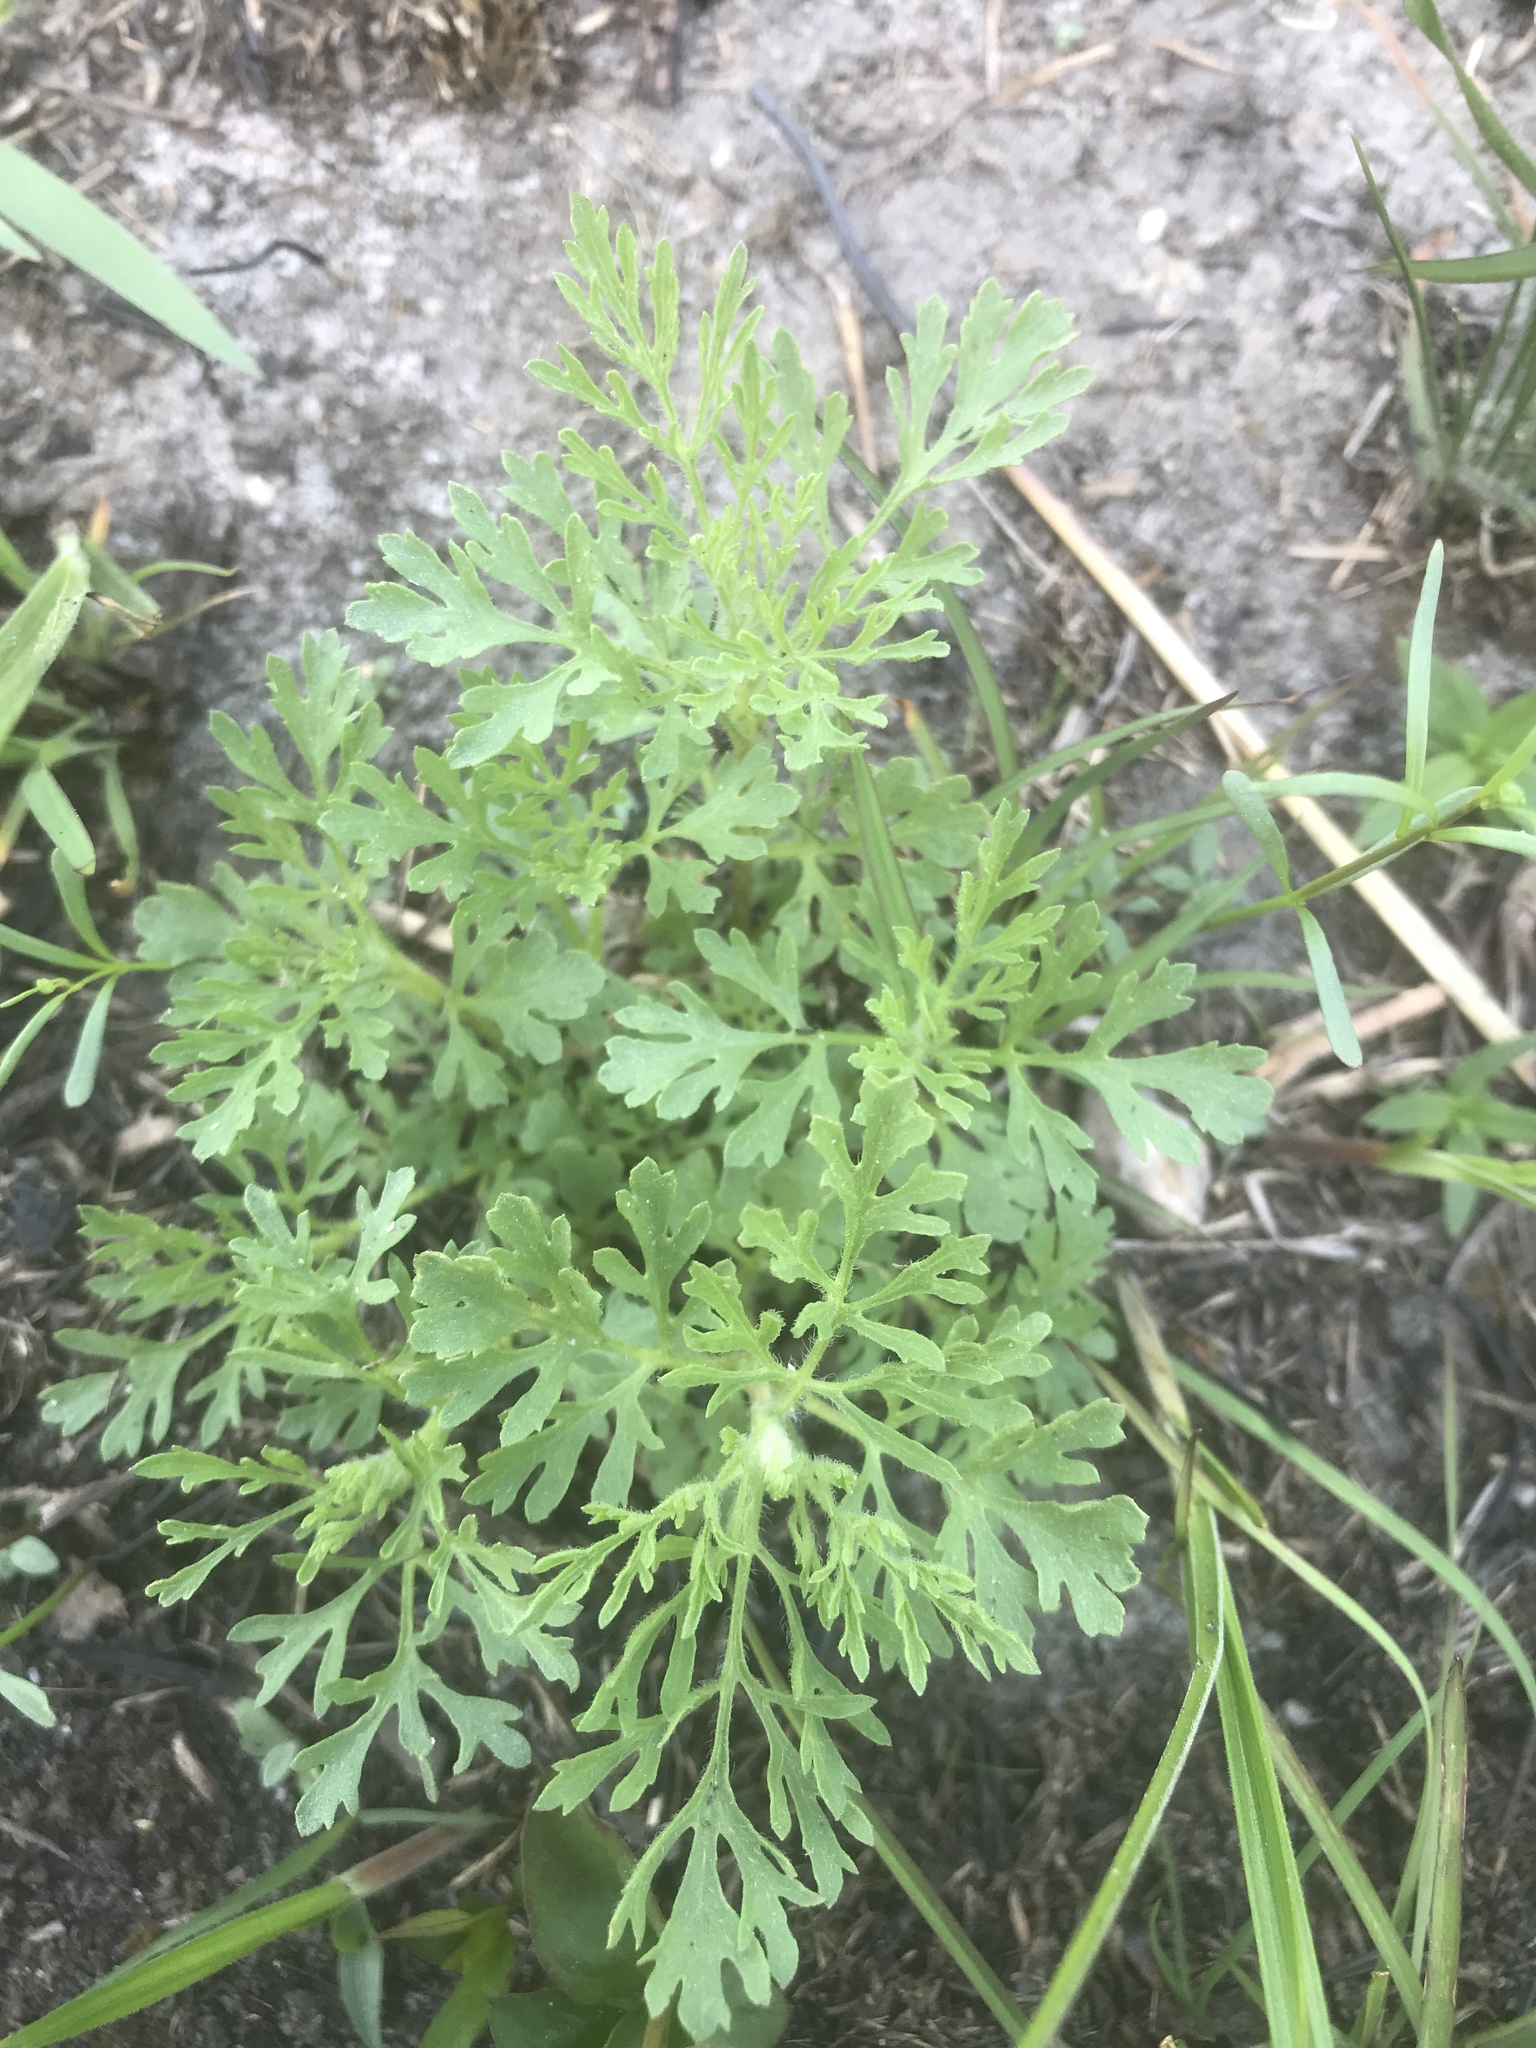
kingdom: Plantae
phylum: Tracheophyta
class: Magnoliopsida
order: Asterales
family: Asteraceae
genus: Eupatorium
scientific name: Eupatorium compositifolium
